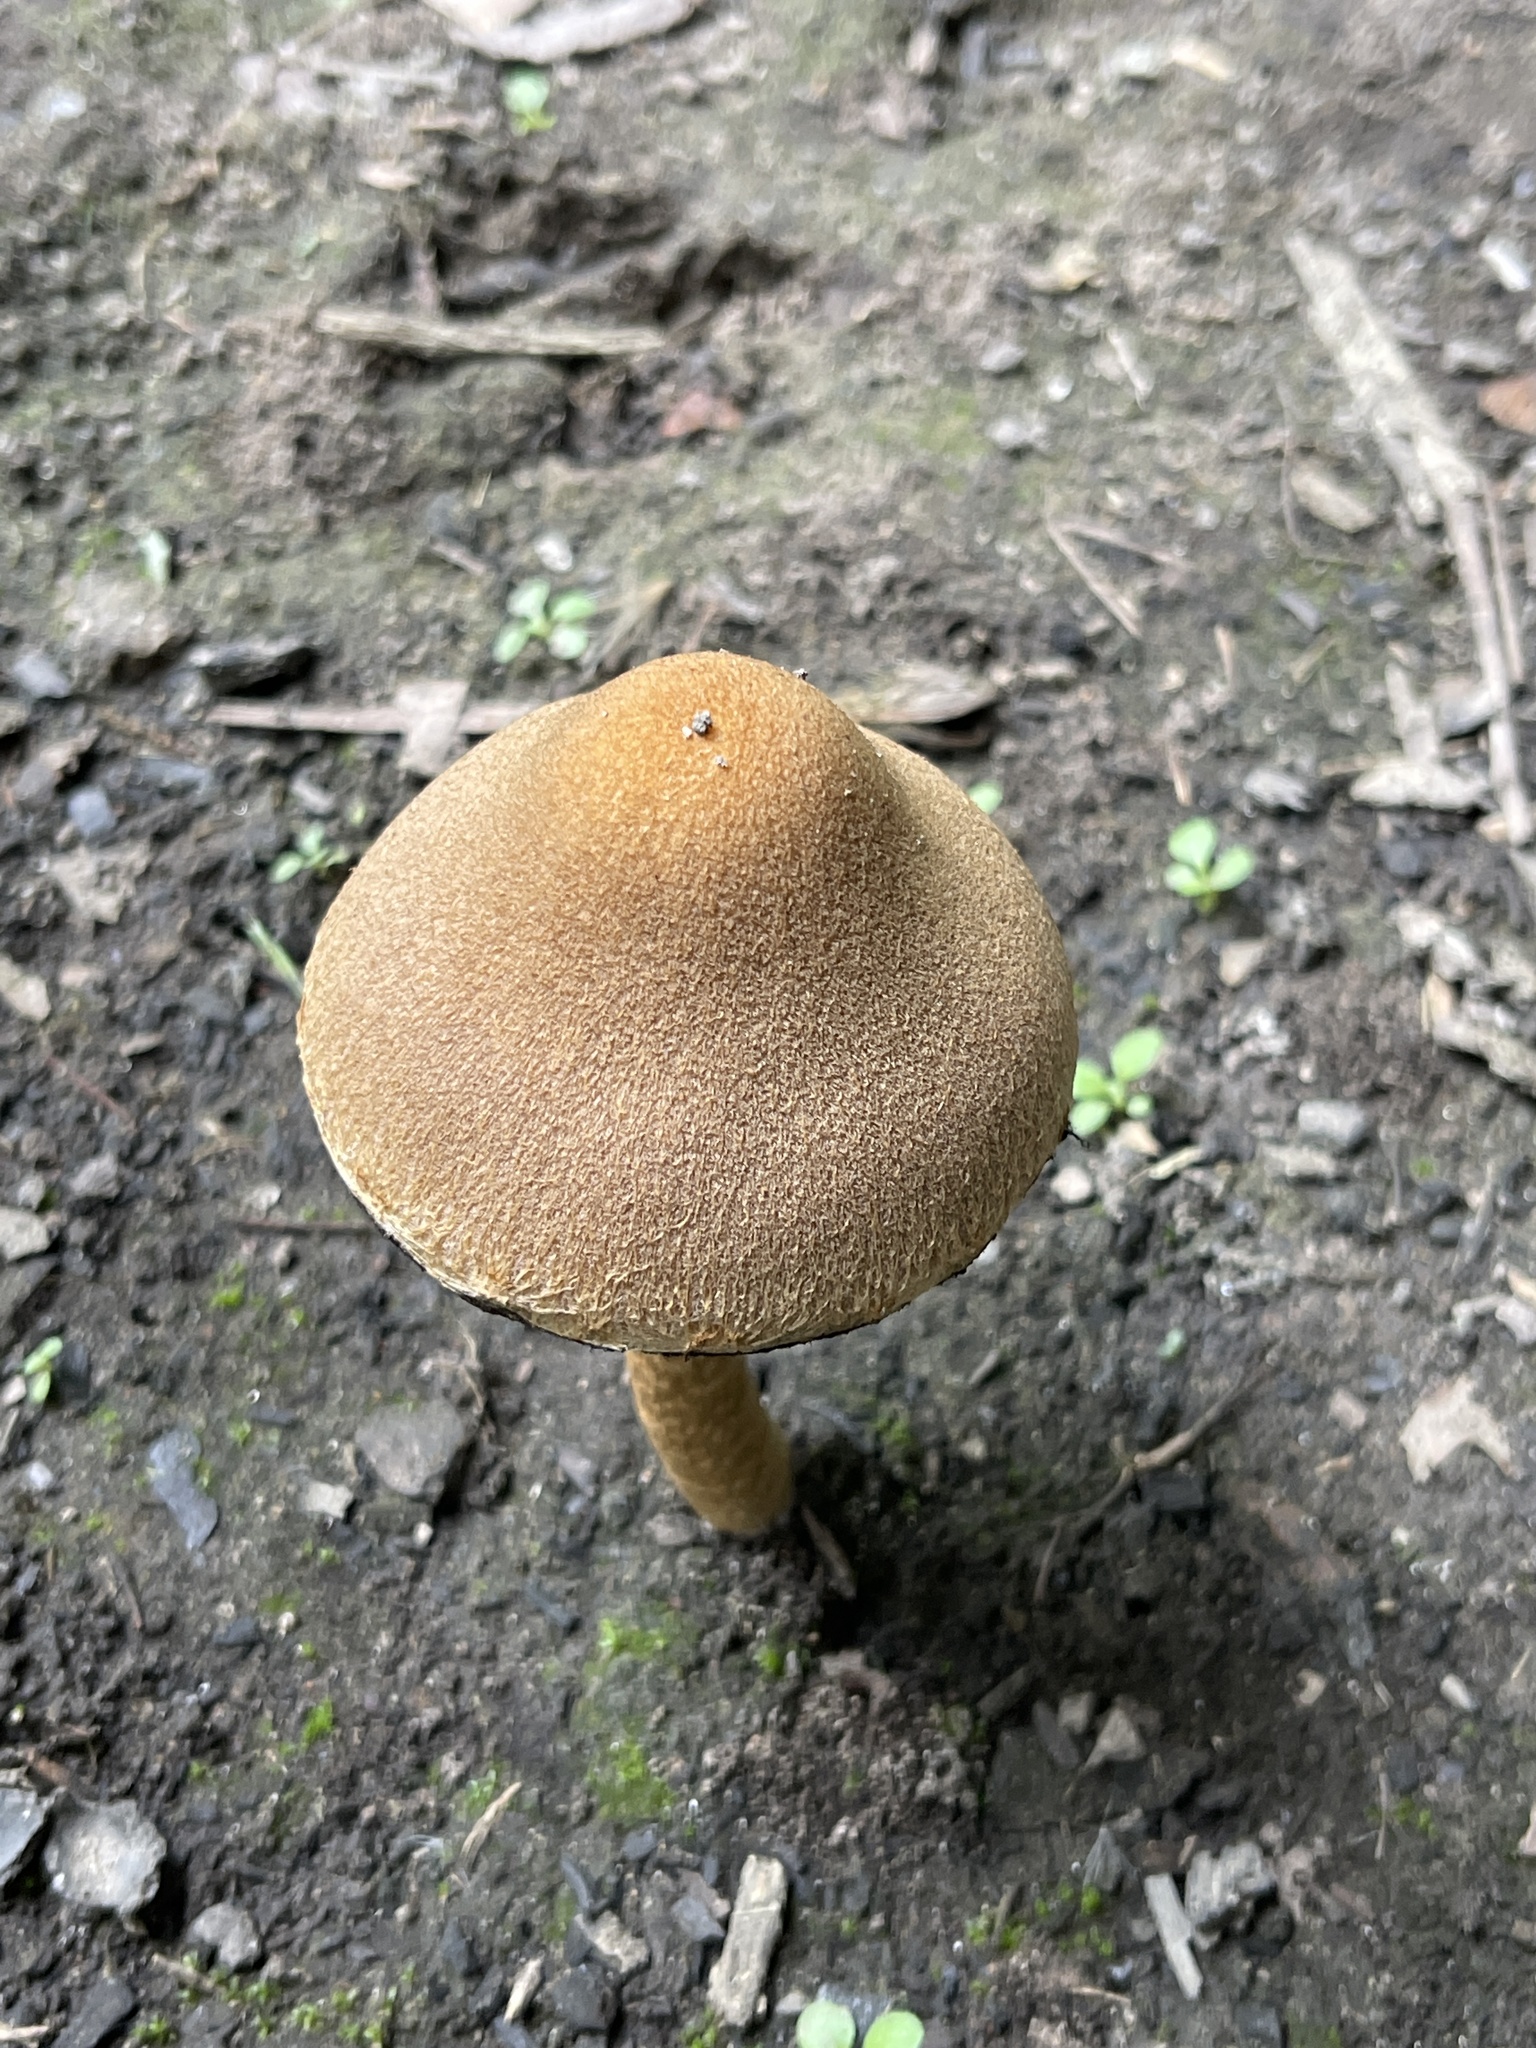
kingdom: Fungi
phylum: Basidiomycota
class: Agaricomycetes
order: Agaricales
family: Psathyrellaceae
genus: Lacrymaria
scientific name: Lacrymaria lacrymabunda
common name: Weeping widow
